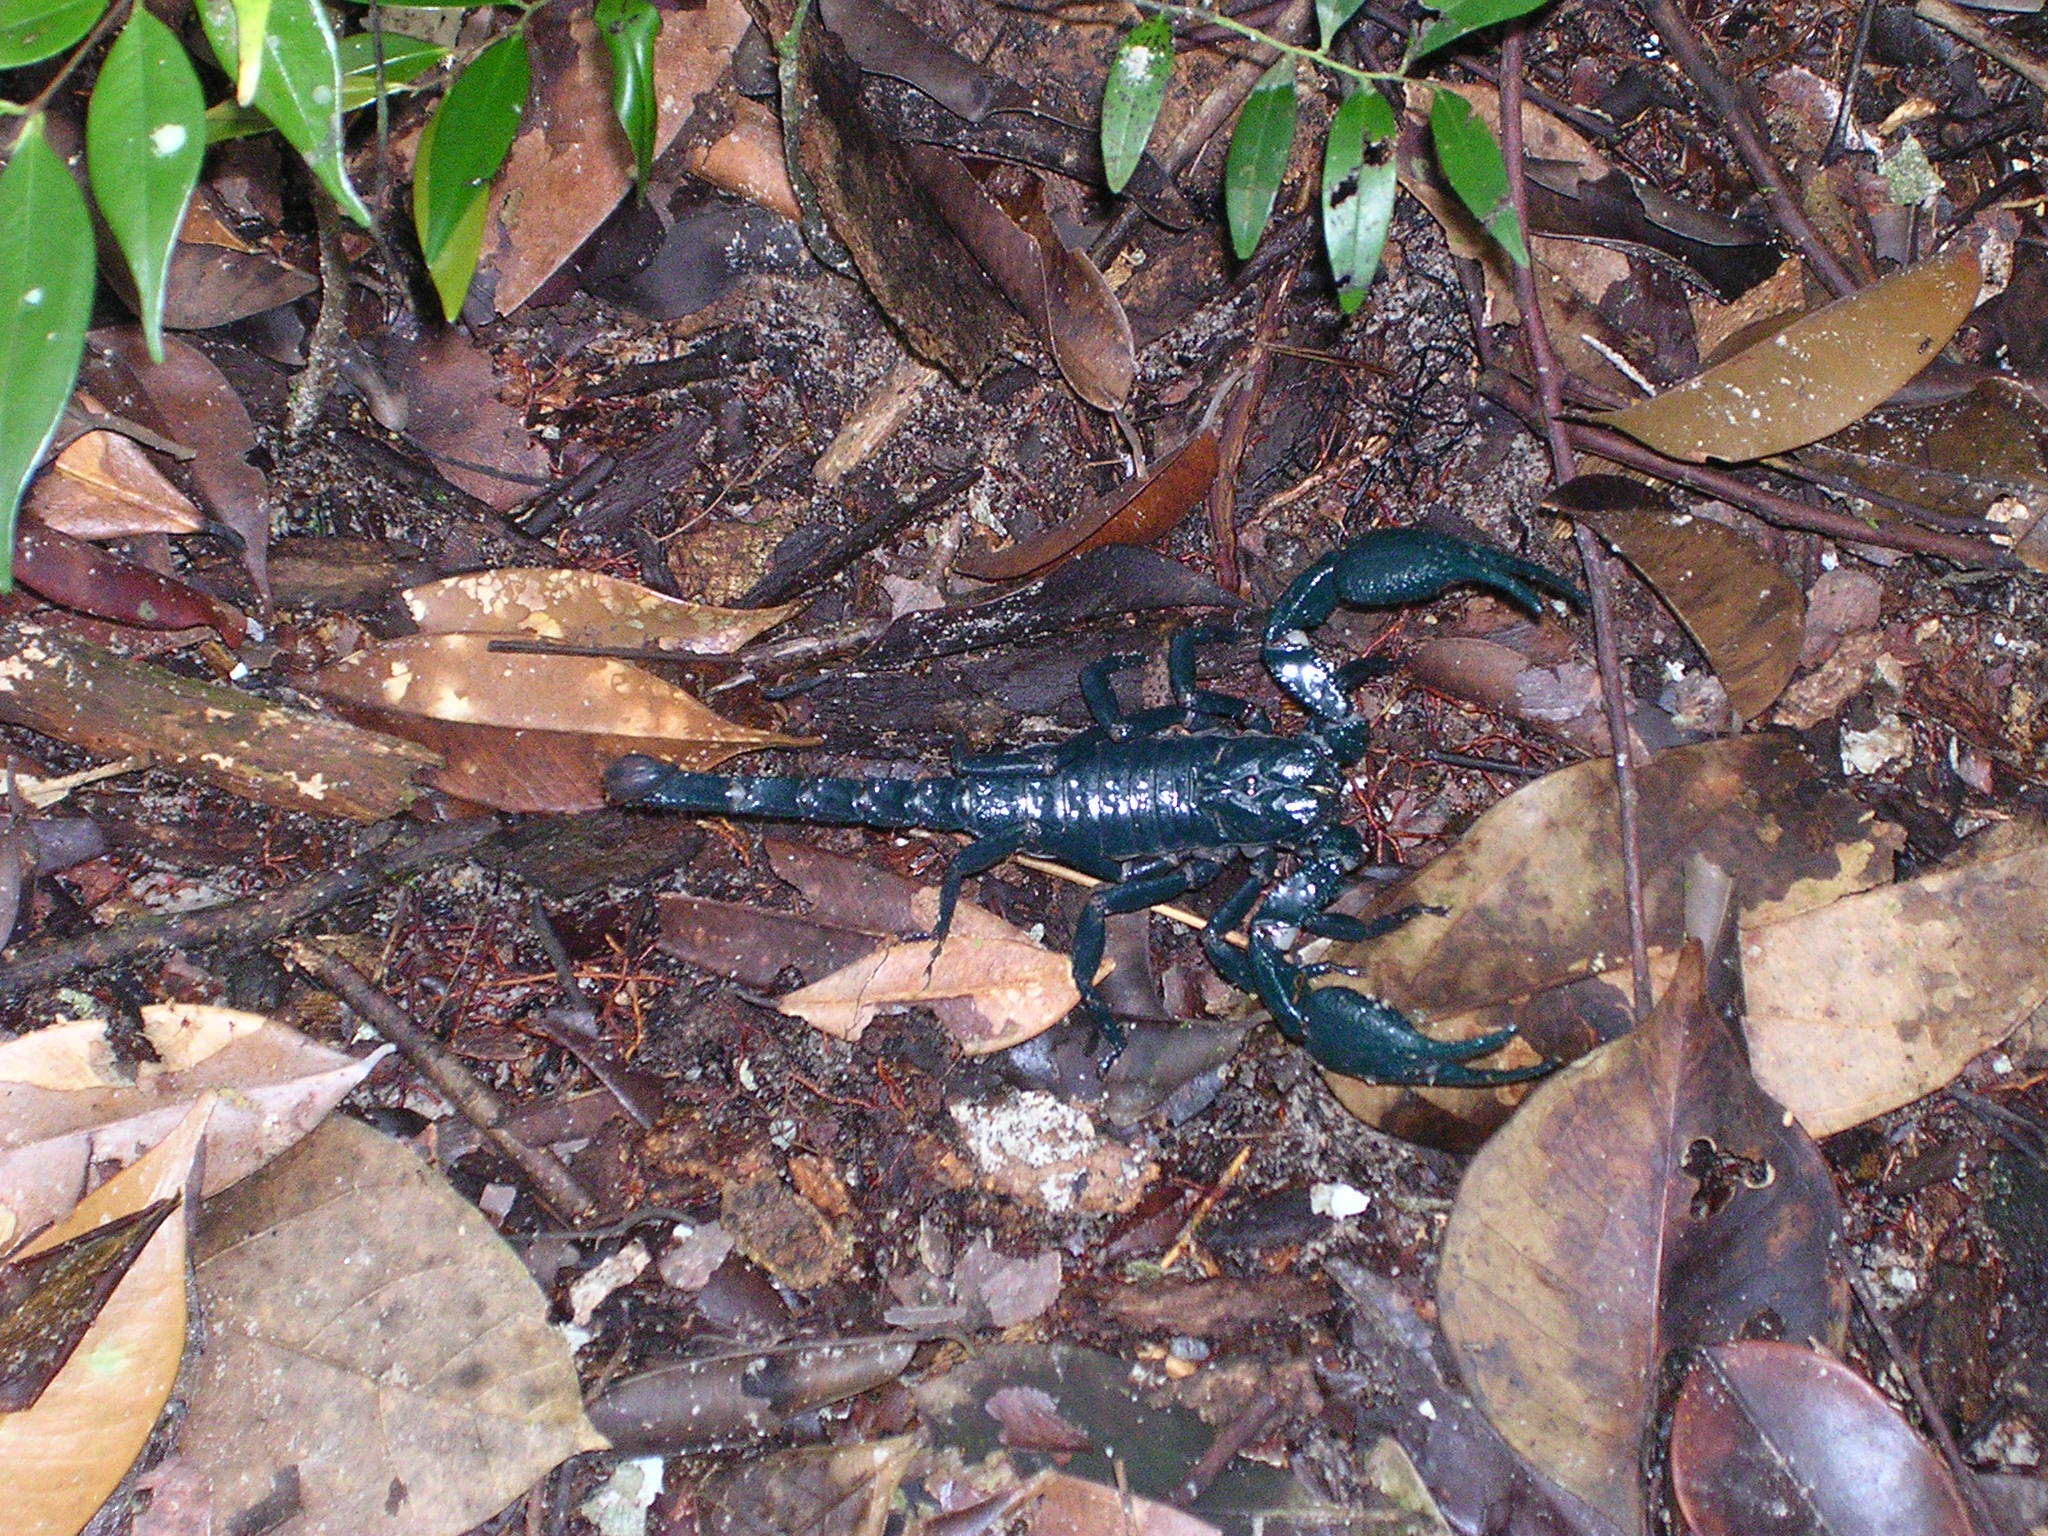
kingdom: Animalia
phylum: Arthropoda
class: Arachnida
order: Scorpiones
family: Scorpionidae
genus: Javanimetrus
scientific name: Javanimetrus cyaneus
